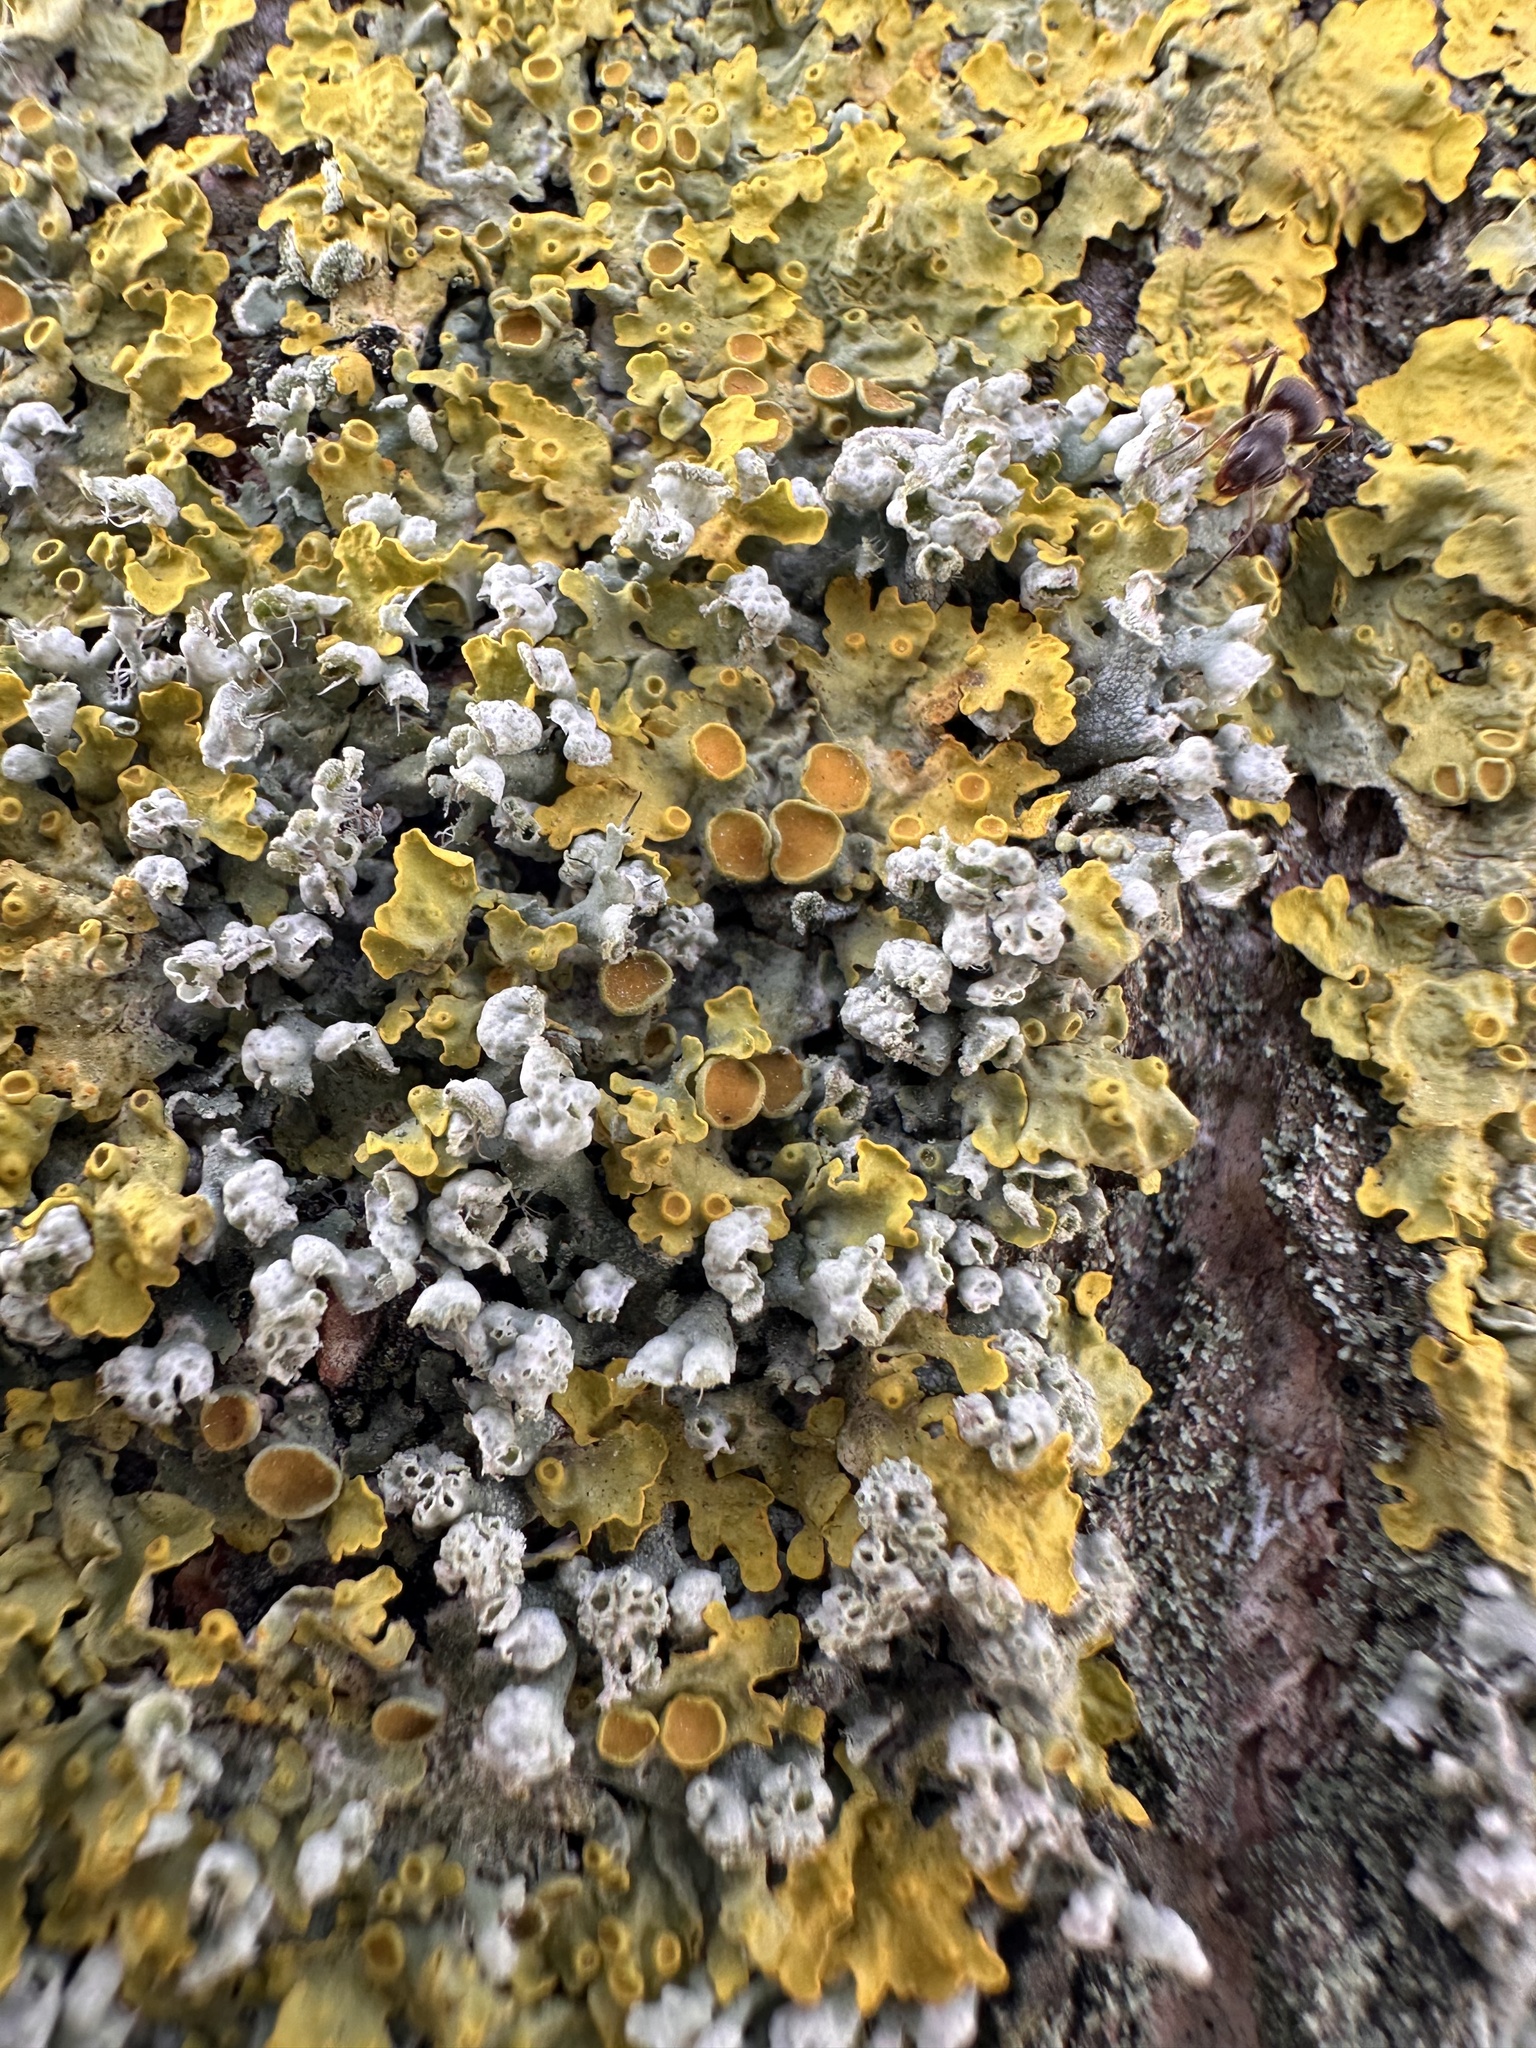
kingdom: Fungi
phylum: Ascomycota
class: Lecanoromycetes
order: Caliciales
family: Physciaceae
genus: Physcia
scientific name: Physcia adscendens
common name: Hooded rosette lichen
